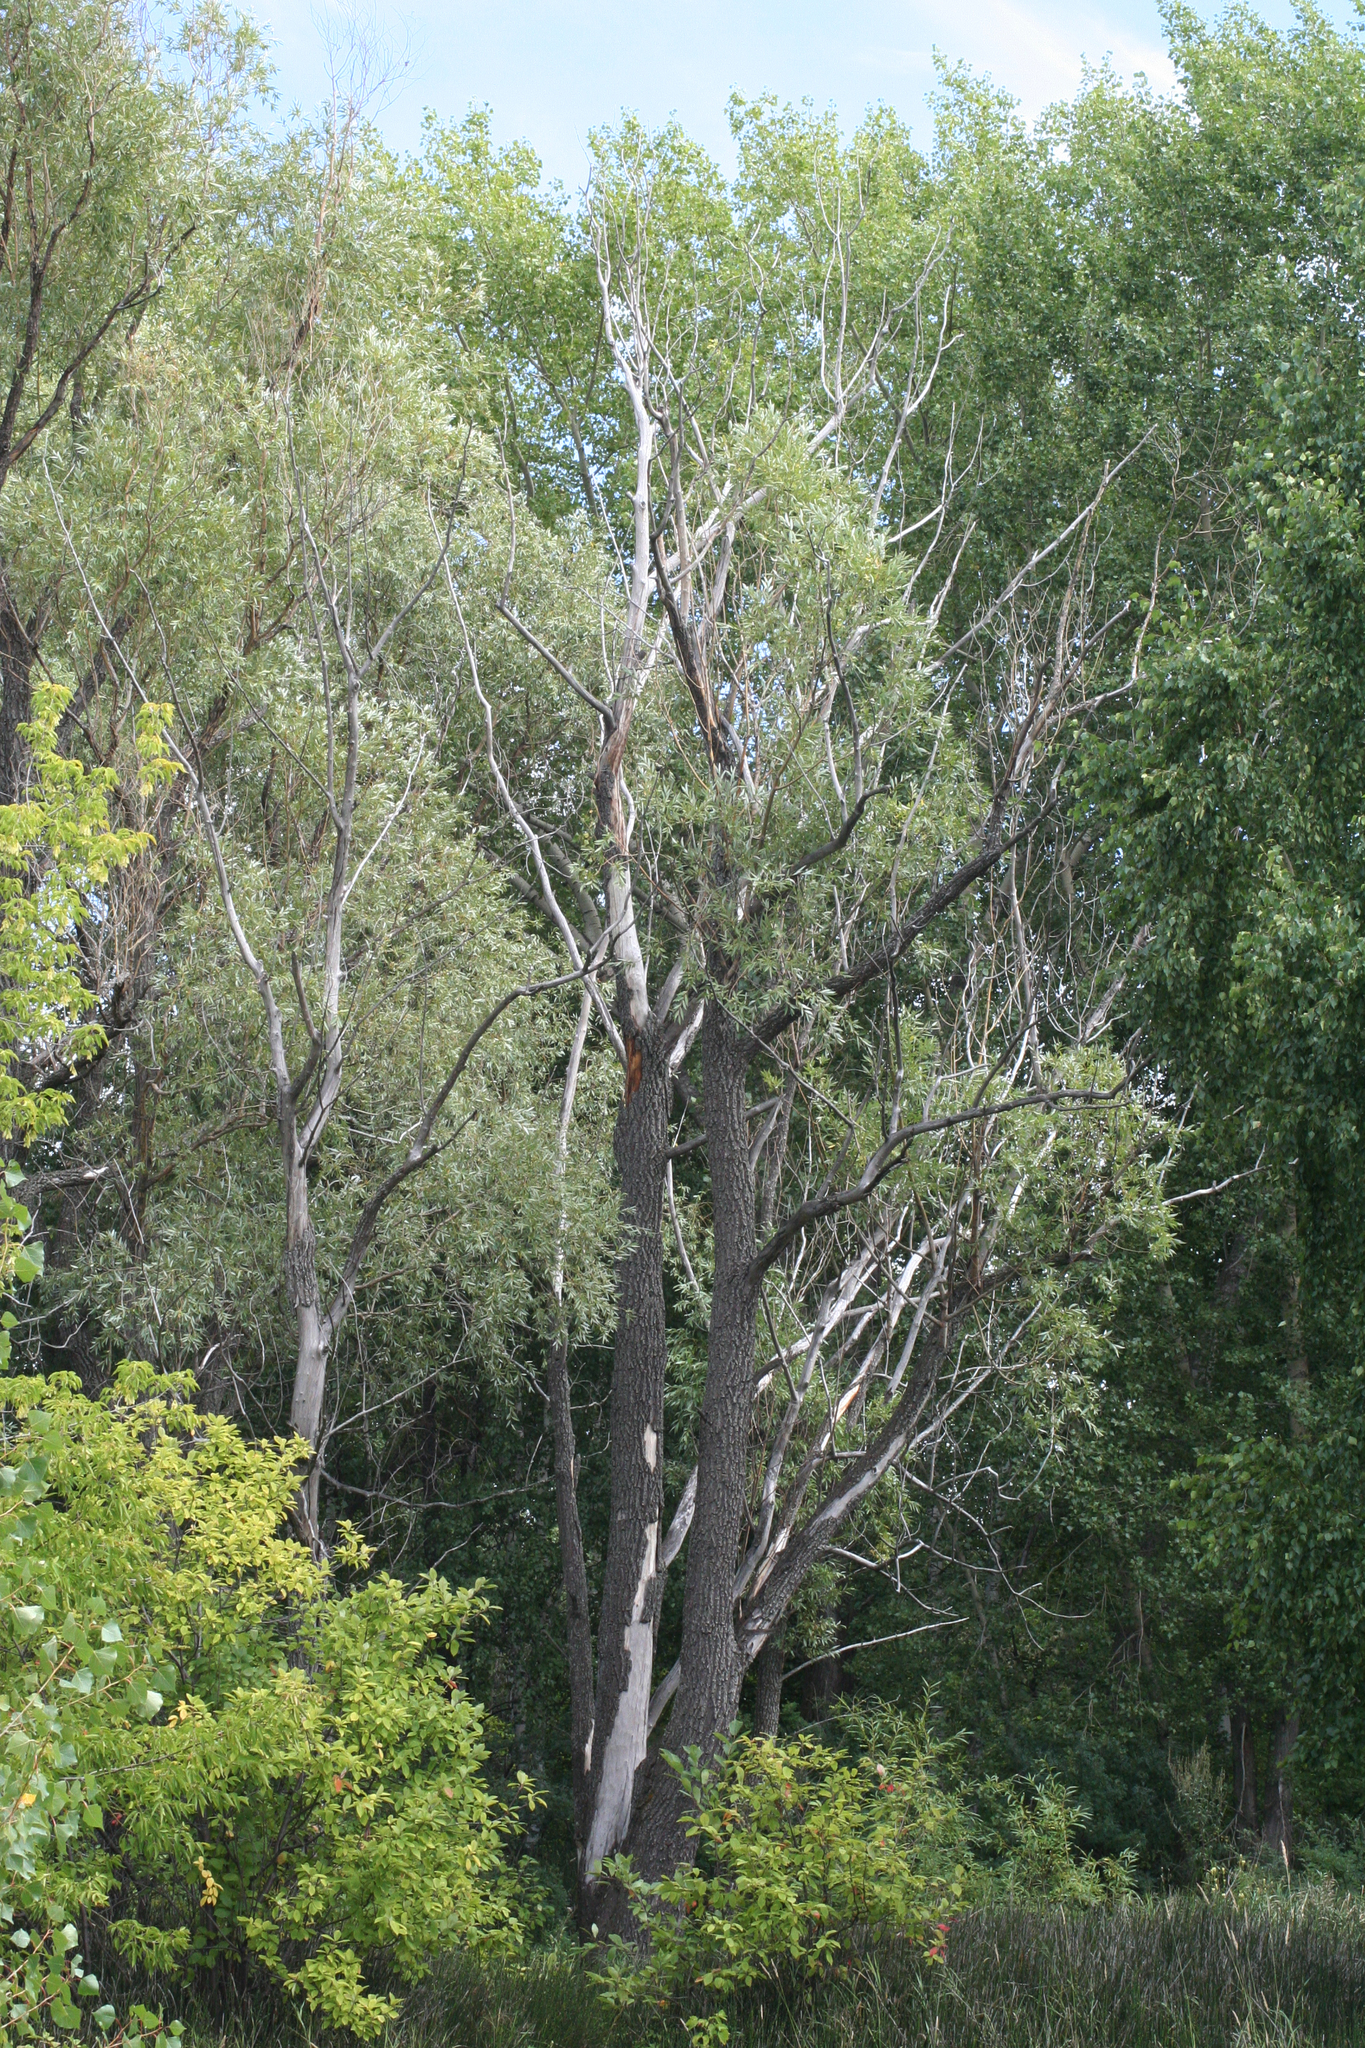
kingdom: Plantae
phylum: Tracheophyta
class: Magnoliopsida
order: Malpighiales
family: Salicaceae
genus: Salix
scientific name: Salix alba
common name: White willow
